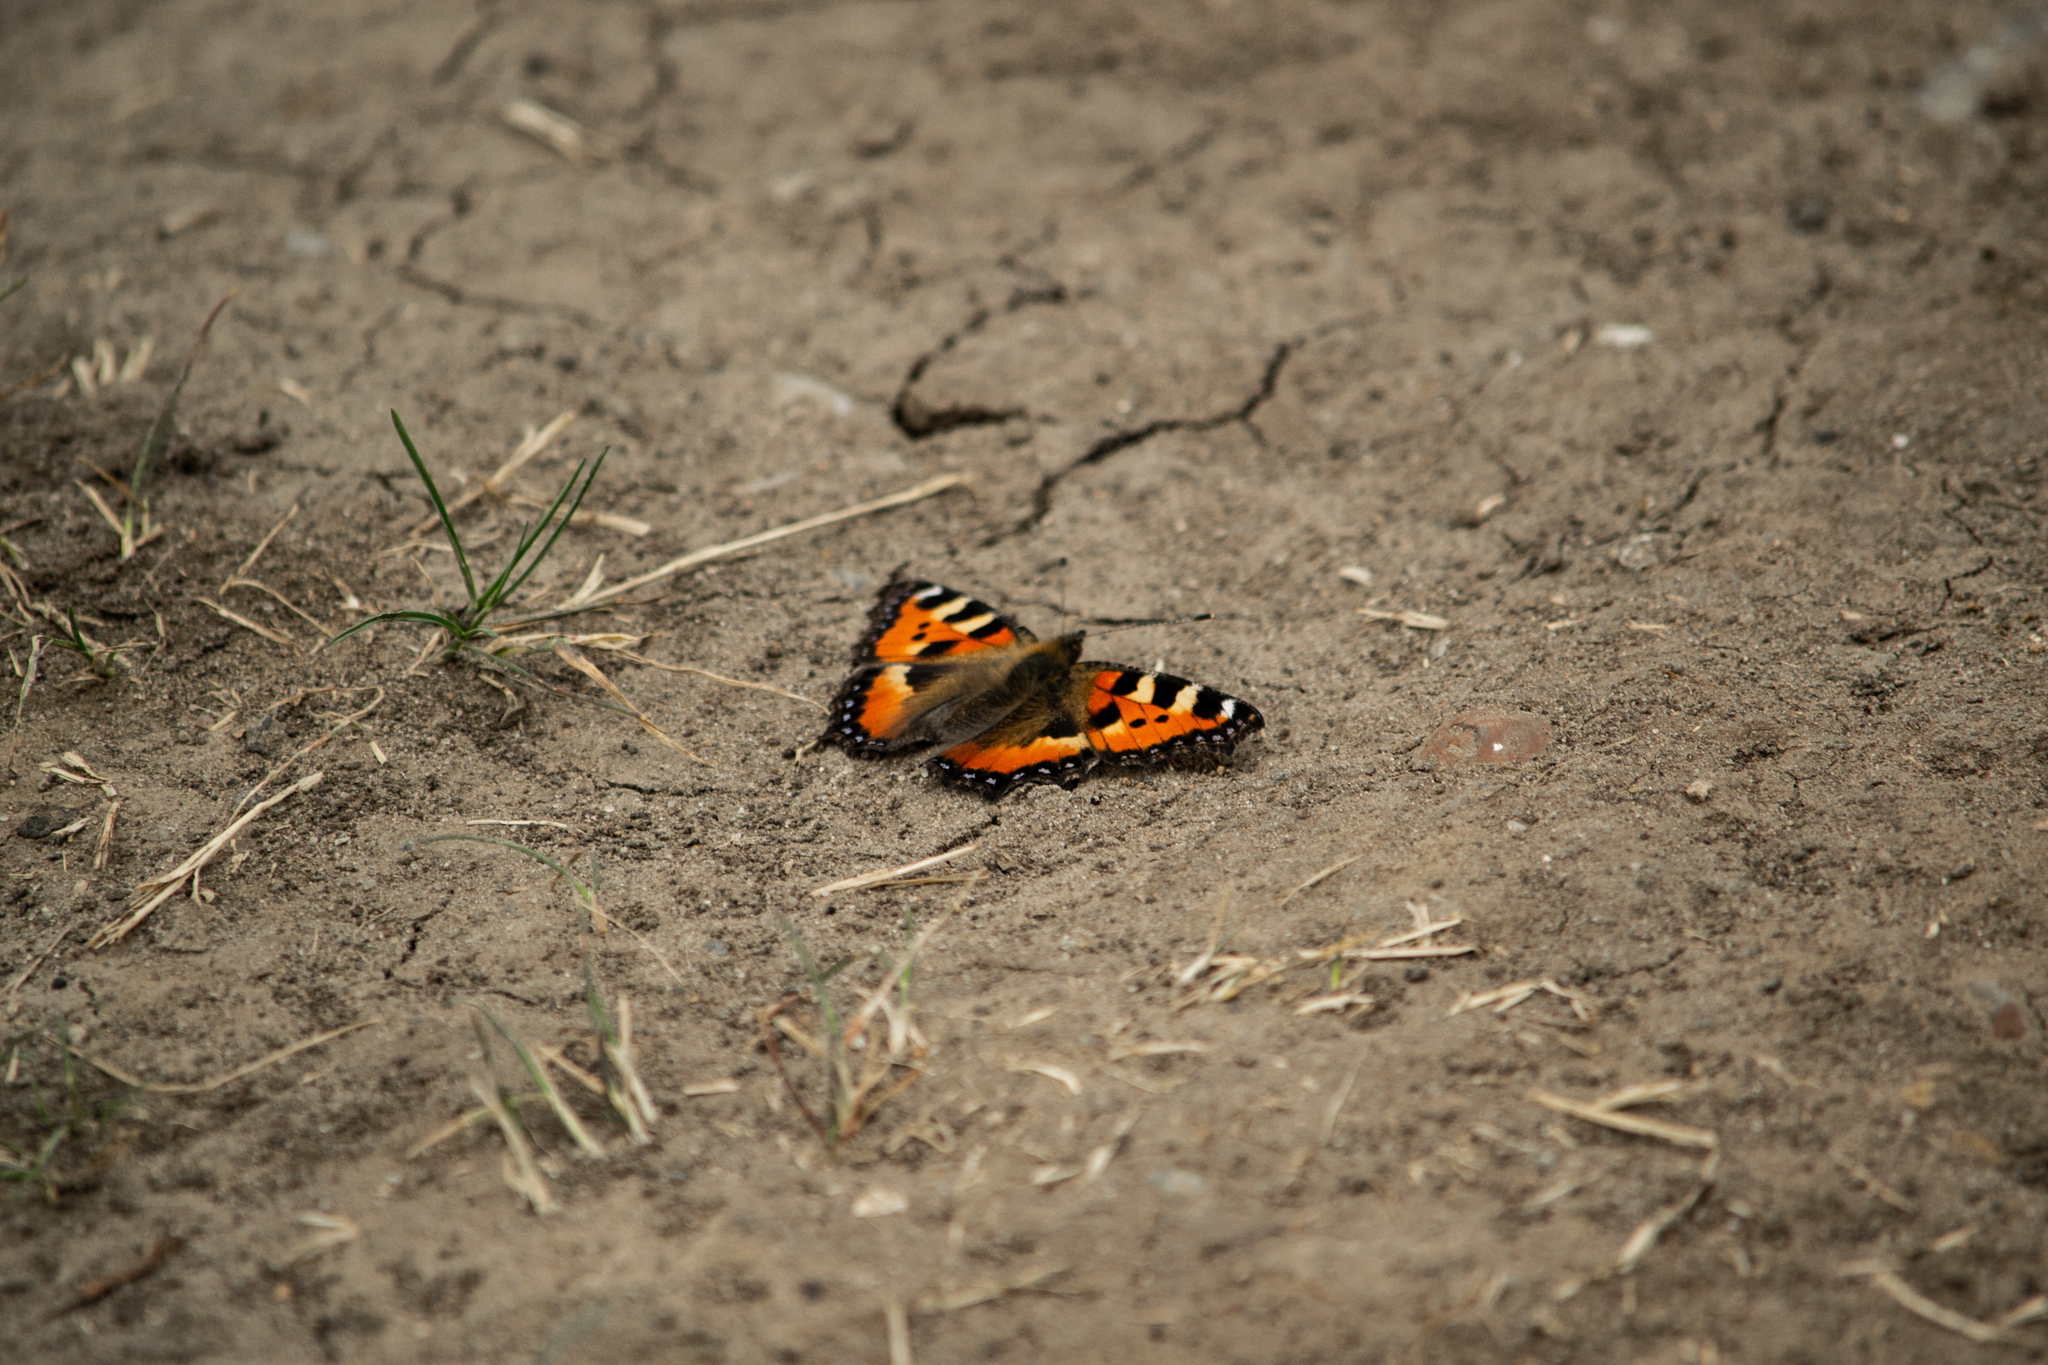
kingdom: Animalia
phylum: Arthropoda
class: Insecta
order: Lepidoptera
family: Nymphalidae
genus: Aglais
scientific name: Aglais urticae
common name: Small tortoiseshell
